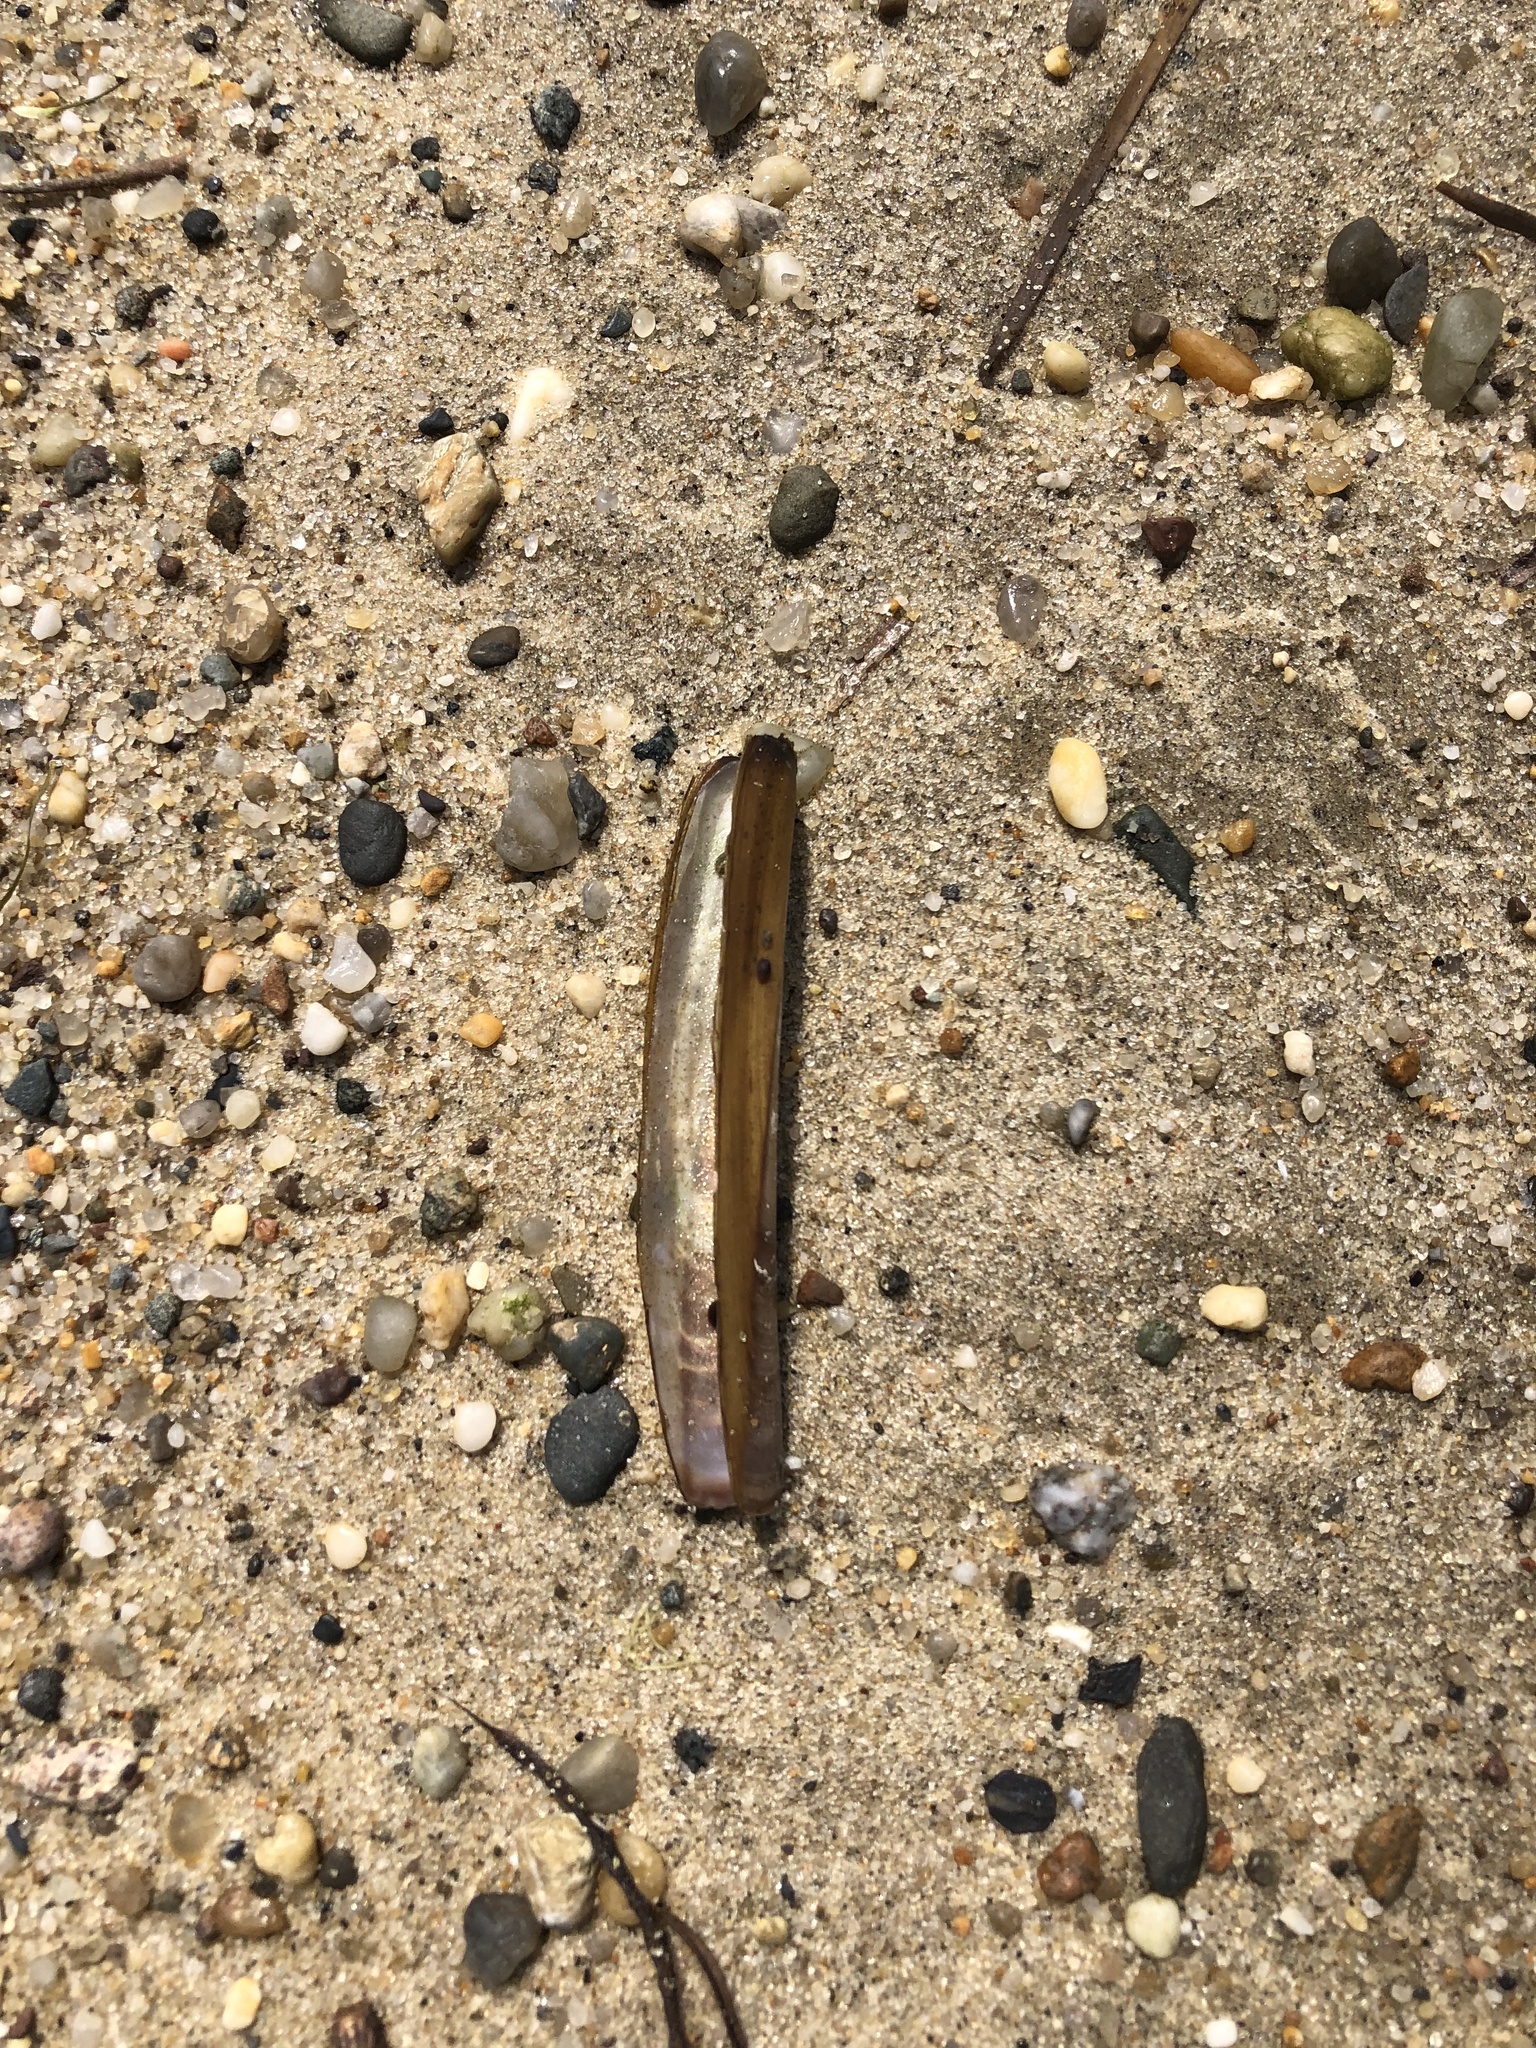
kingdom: Animalia
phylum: Mollusca
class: Bivalvia
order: Adapedonta
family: Pharidae
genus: Ensis
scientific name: Ensis leei
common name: American jack knife clam
